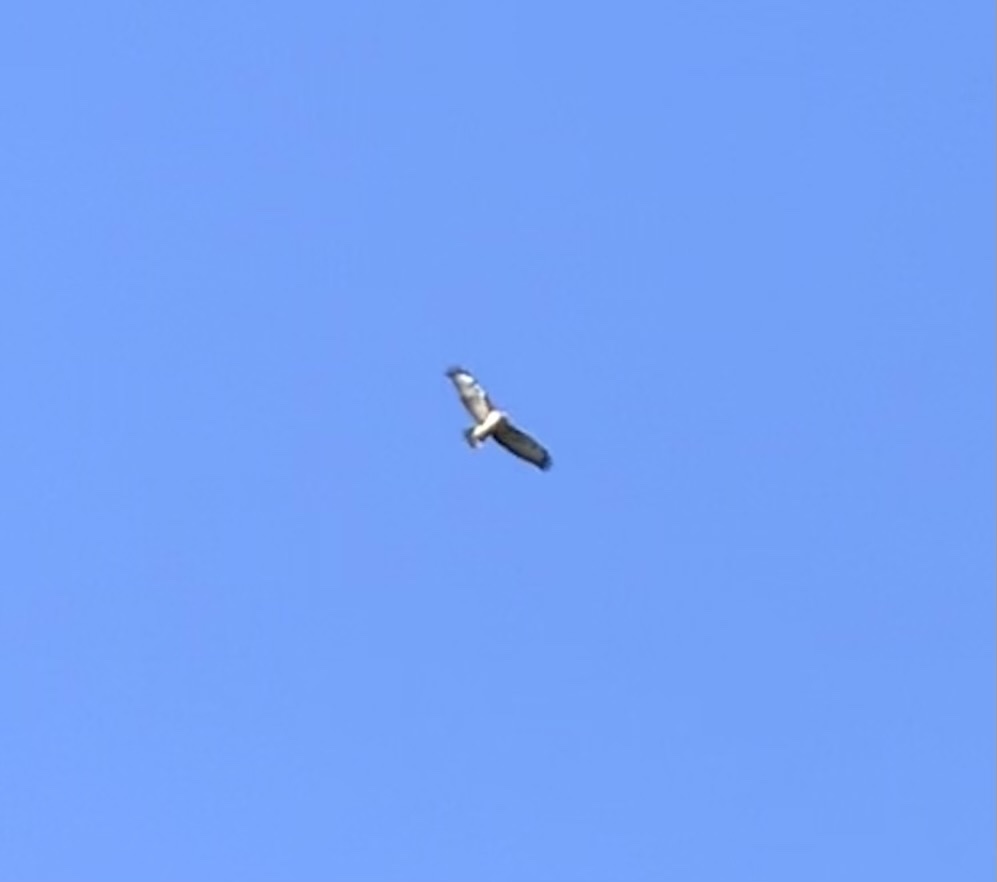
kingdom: Animalia
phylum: Chordata
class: Aves
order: Accipitriformes
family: Accipitridae
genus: Buteo
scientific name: Buteo buteo
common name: Common buzzard
